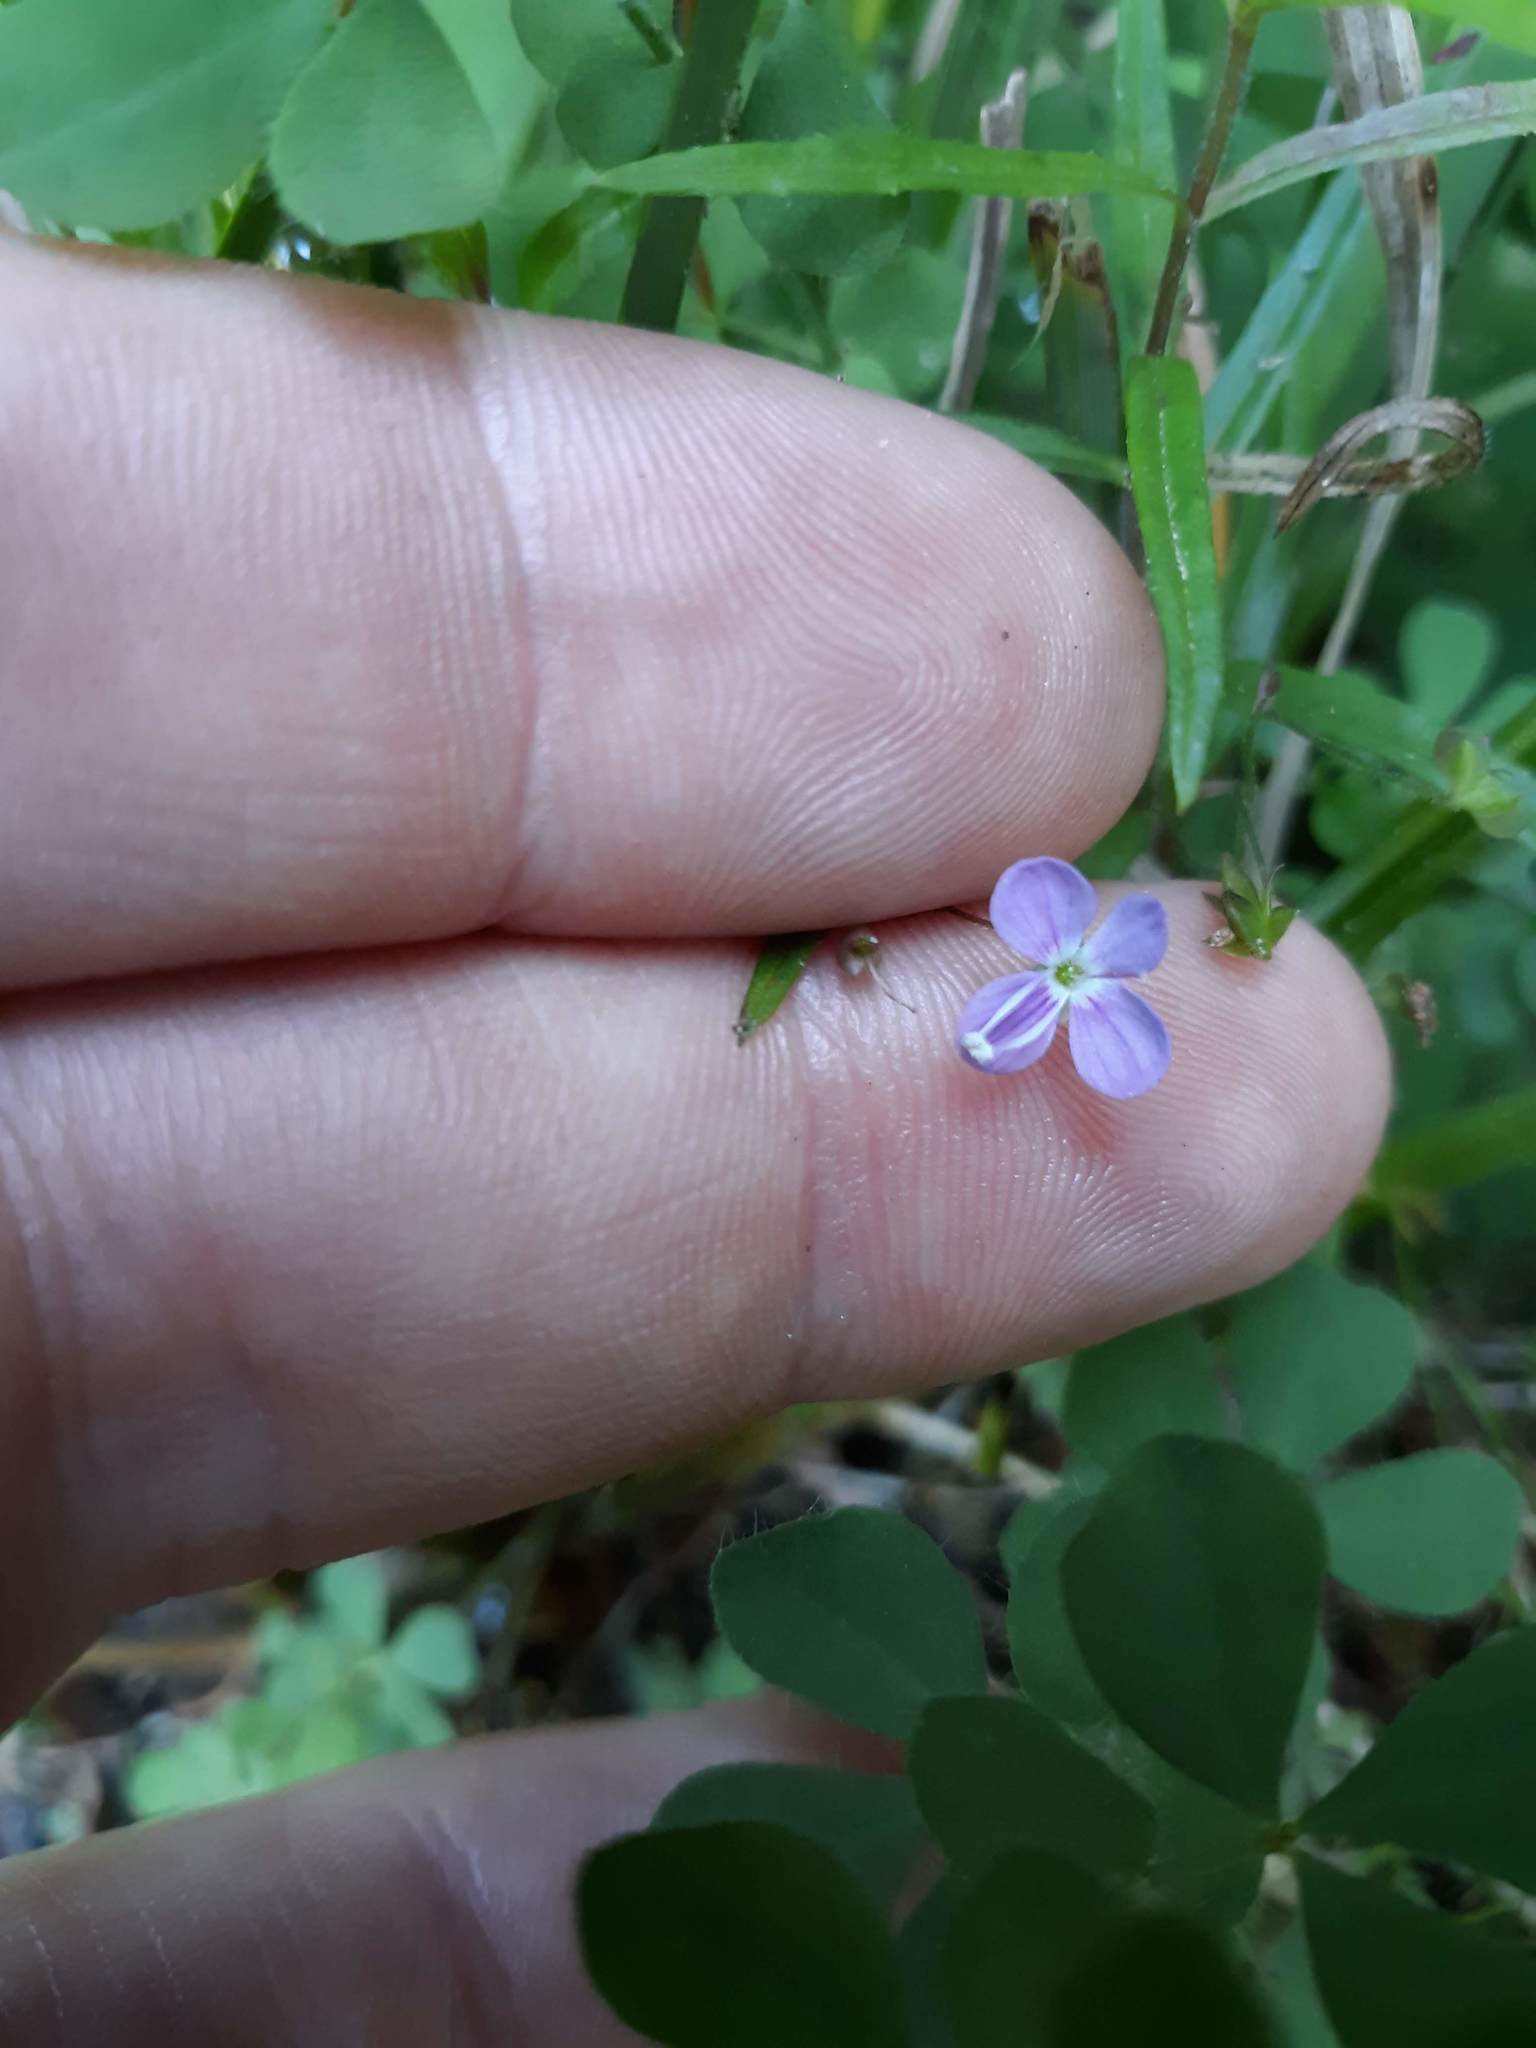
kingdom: Plantae
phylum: Tracheophyta
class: Magnoliopsida
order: Lamiales
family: Plantaginaceae
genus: Veronica
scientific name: Veronica scutellata
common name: Marsh speedwell
